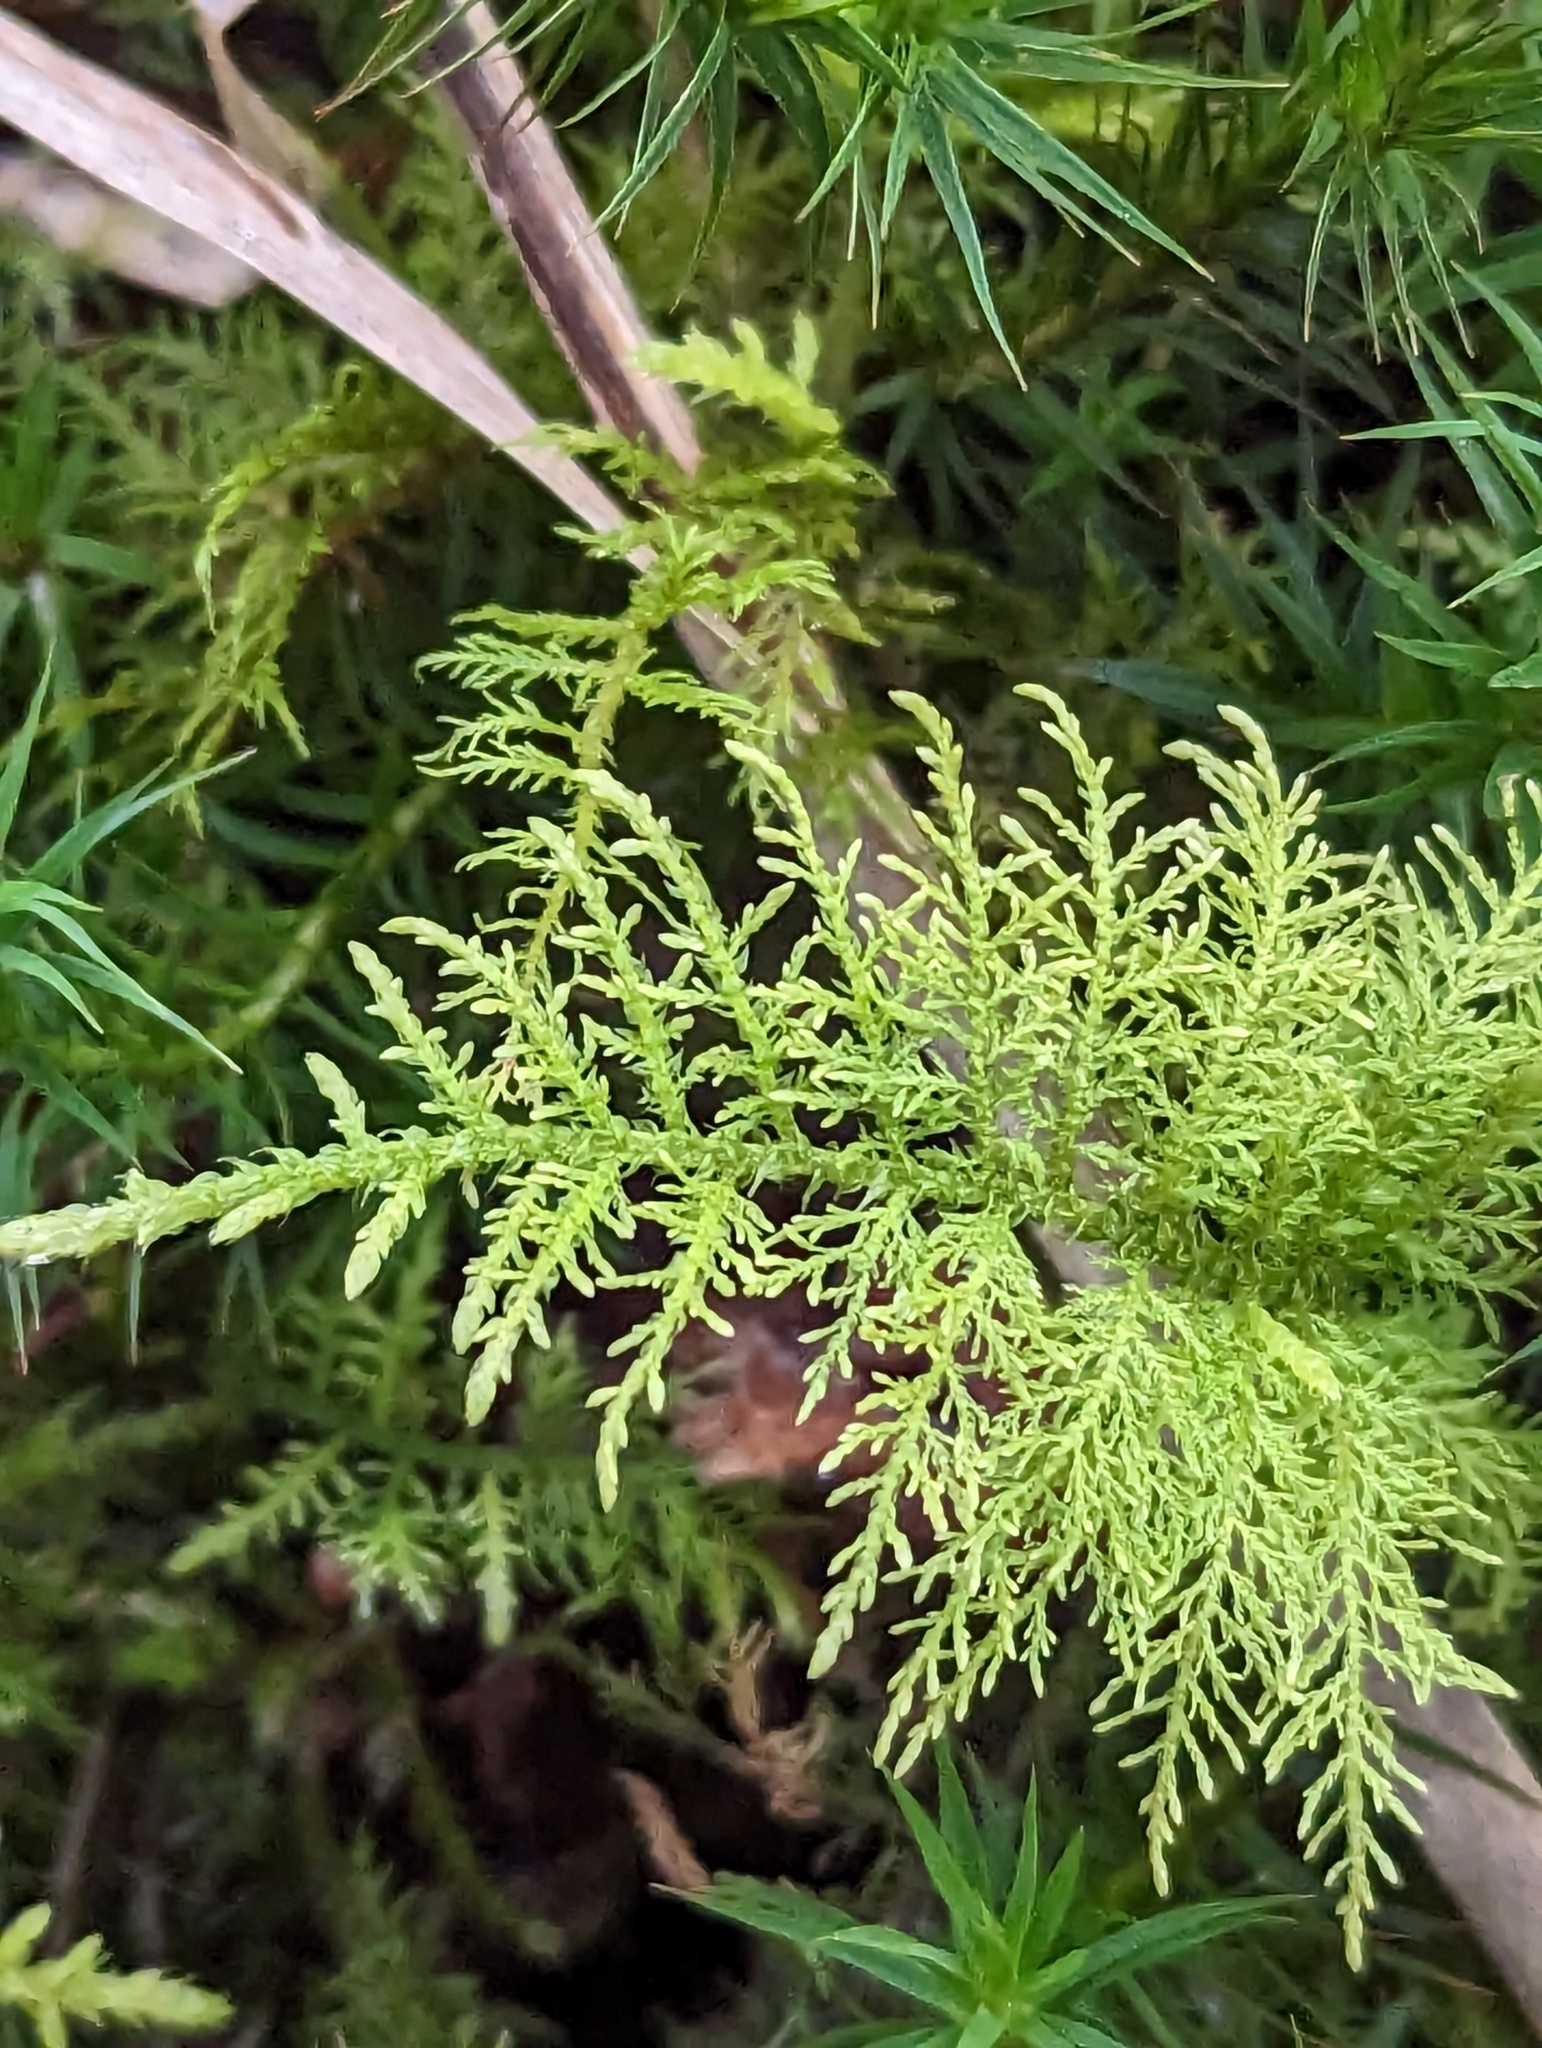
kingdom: Plantae
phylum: Bryophyta
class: Bryopsida
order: Hypnales
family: Thuidiaceae
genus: Thuidium
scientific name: Thuidium tamariscinum
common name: Common tamarisk-moss
